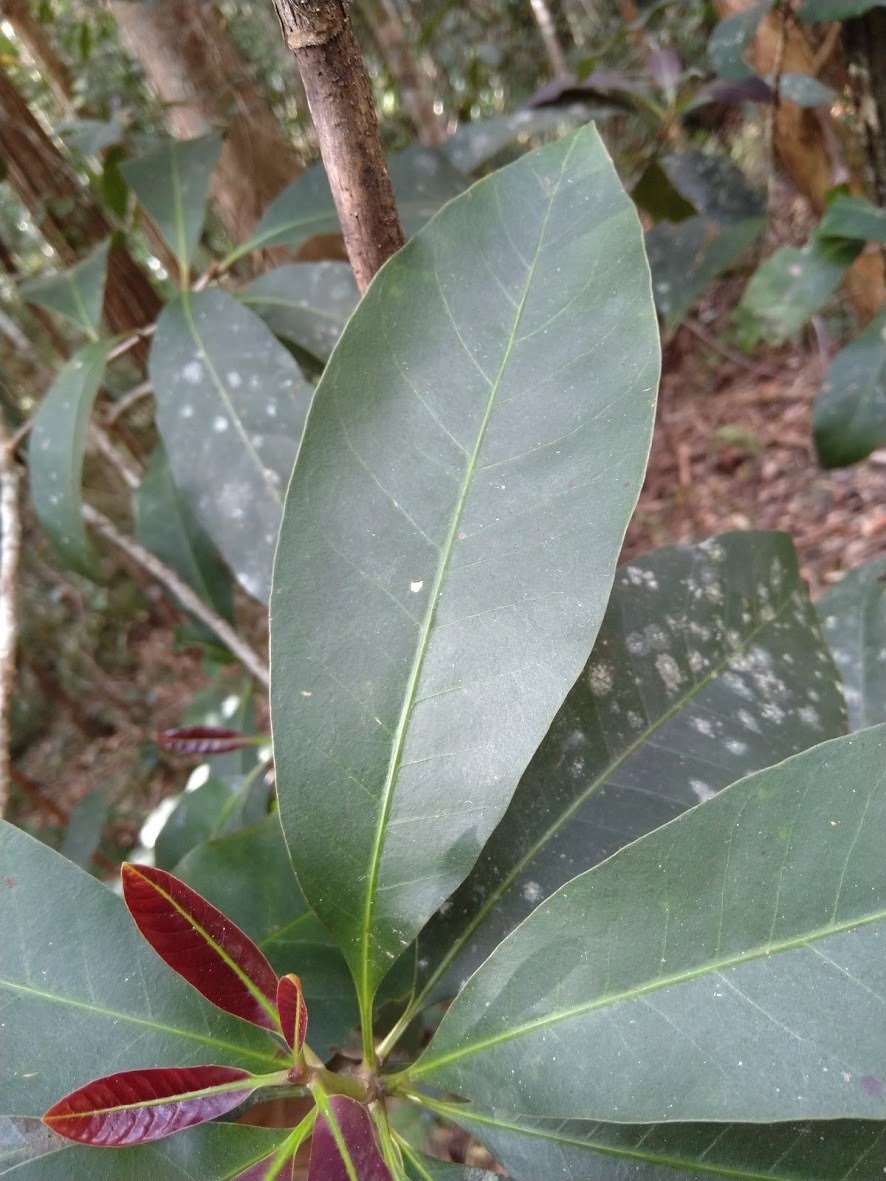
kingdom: Plantae
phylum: Tracheophyta
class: Magnoliopsida
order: Ericales
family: Sapotaceae
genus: Pleioluma
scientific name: Pleioluma queenslandica
